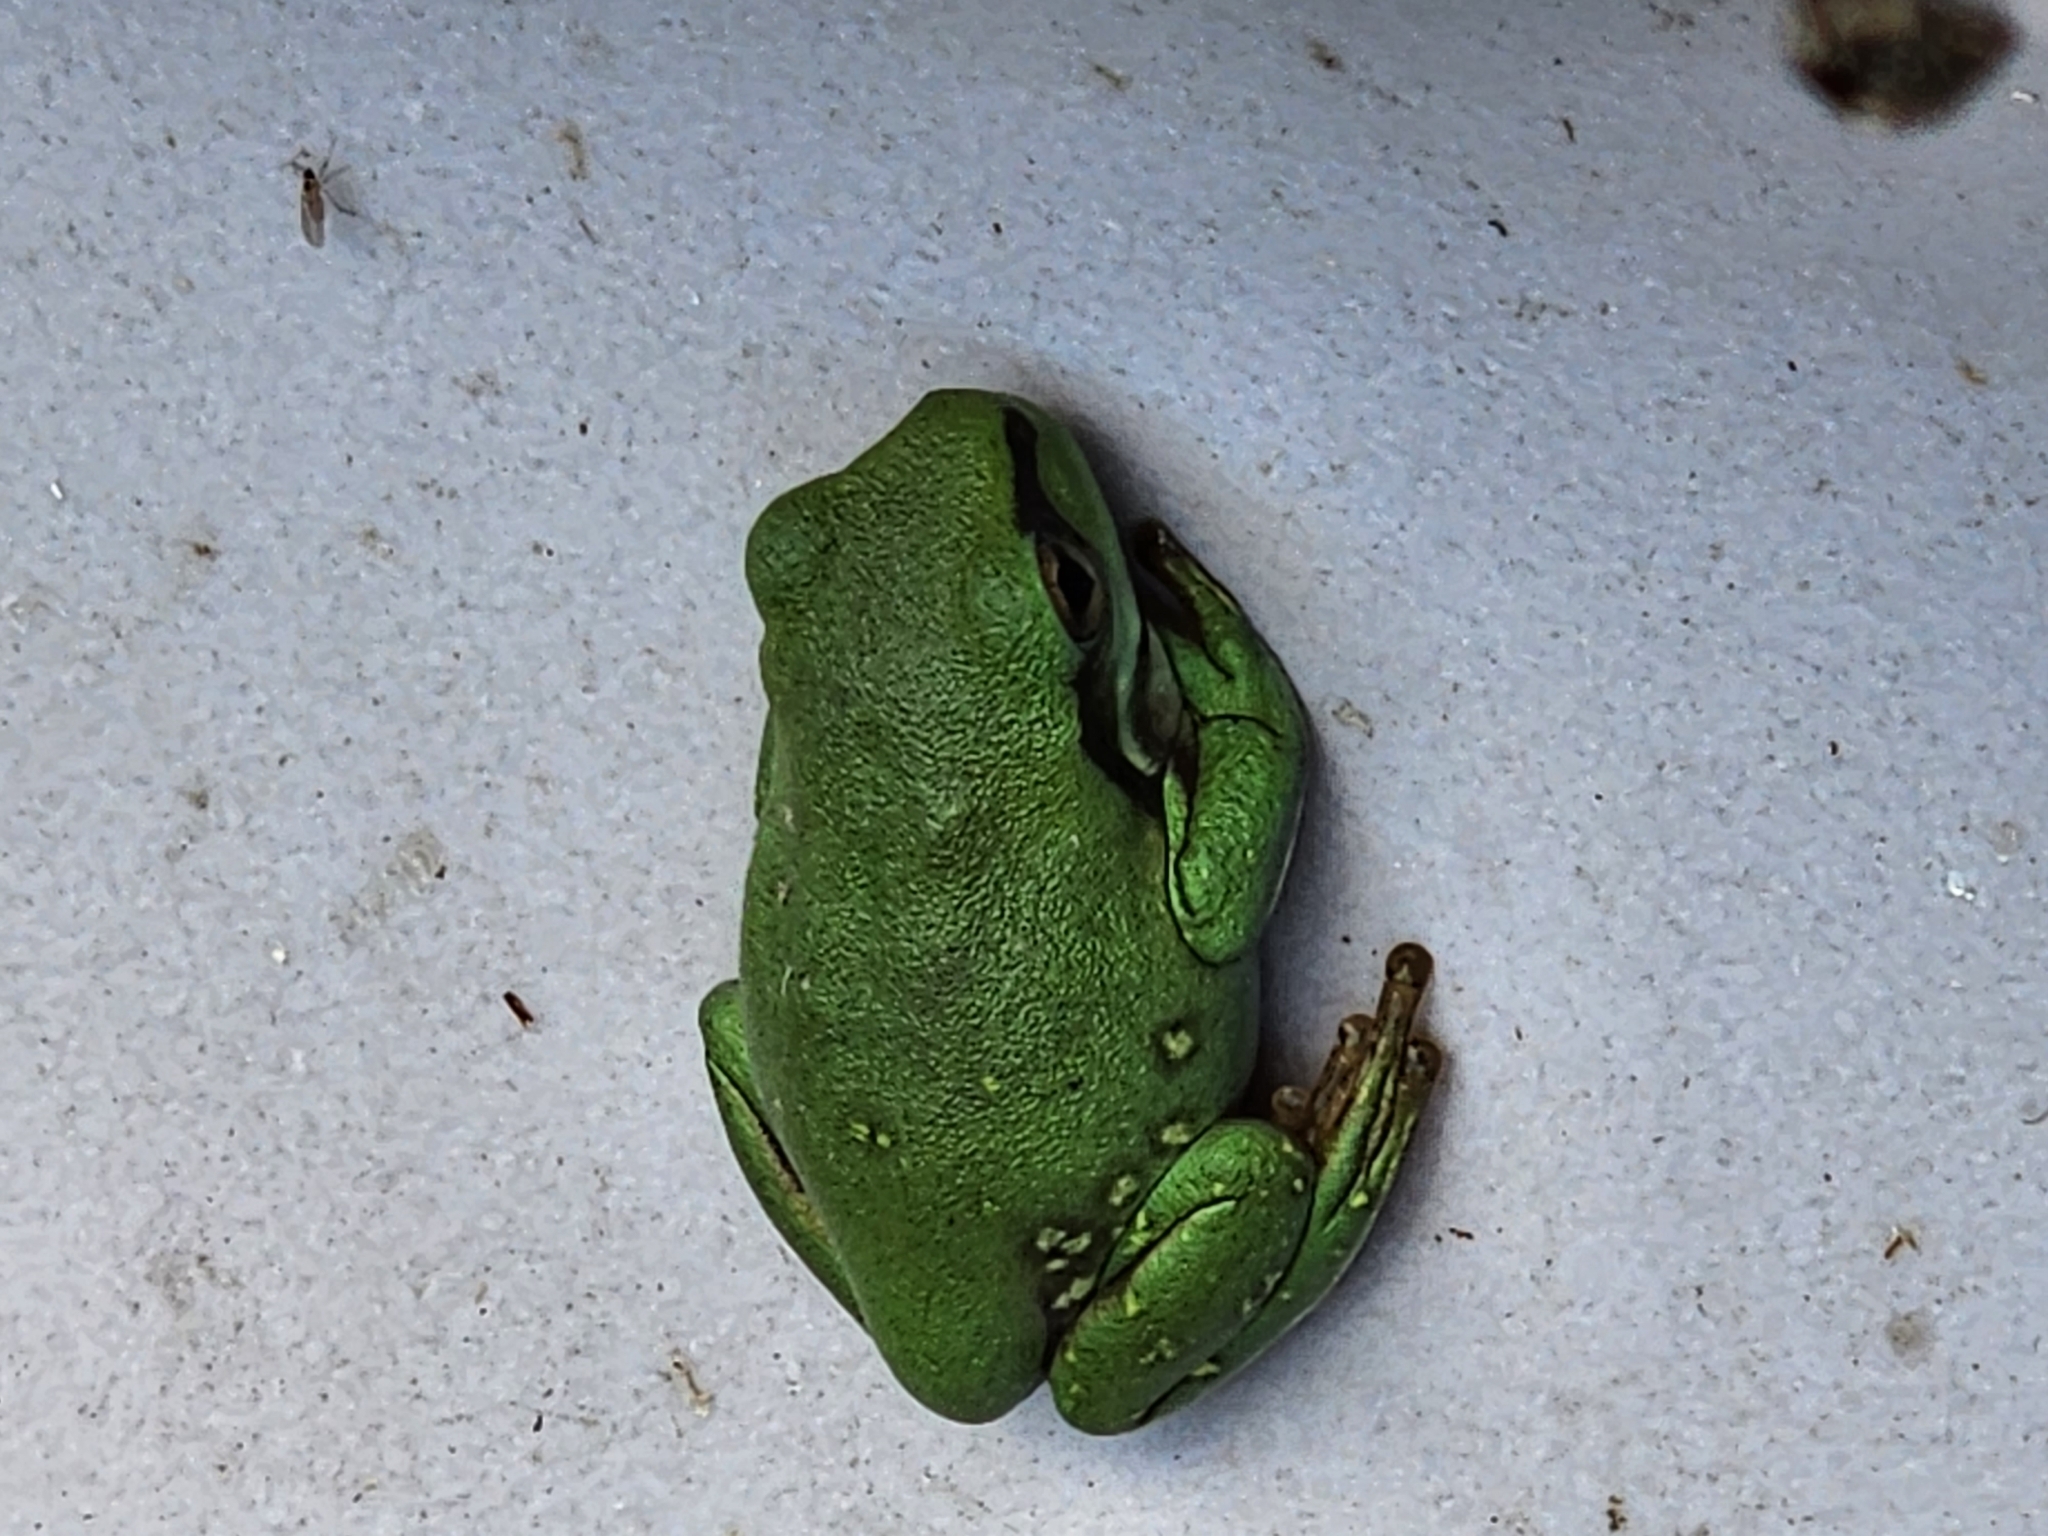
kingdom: Animalia
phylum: Chordata
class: Amphibia
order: Anura
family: Pelodryadidae
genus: Ranoidea
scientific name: Ranoidea caerulea
